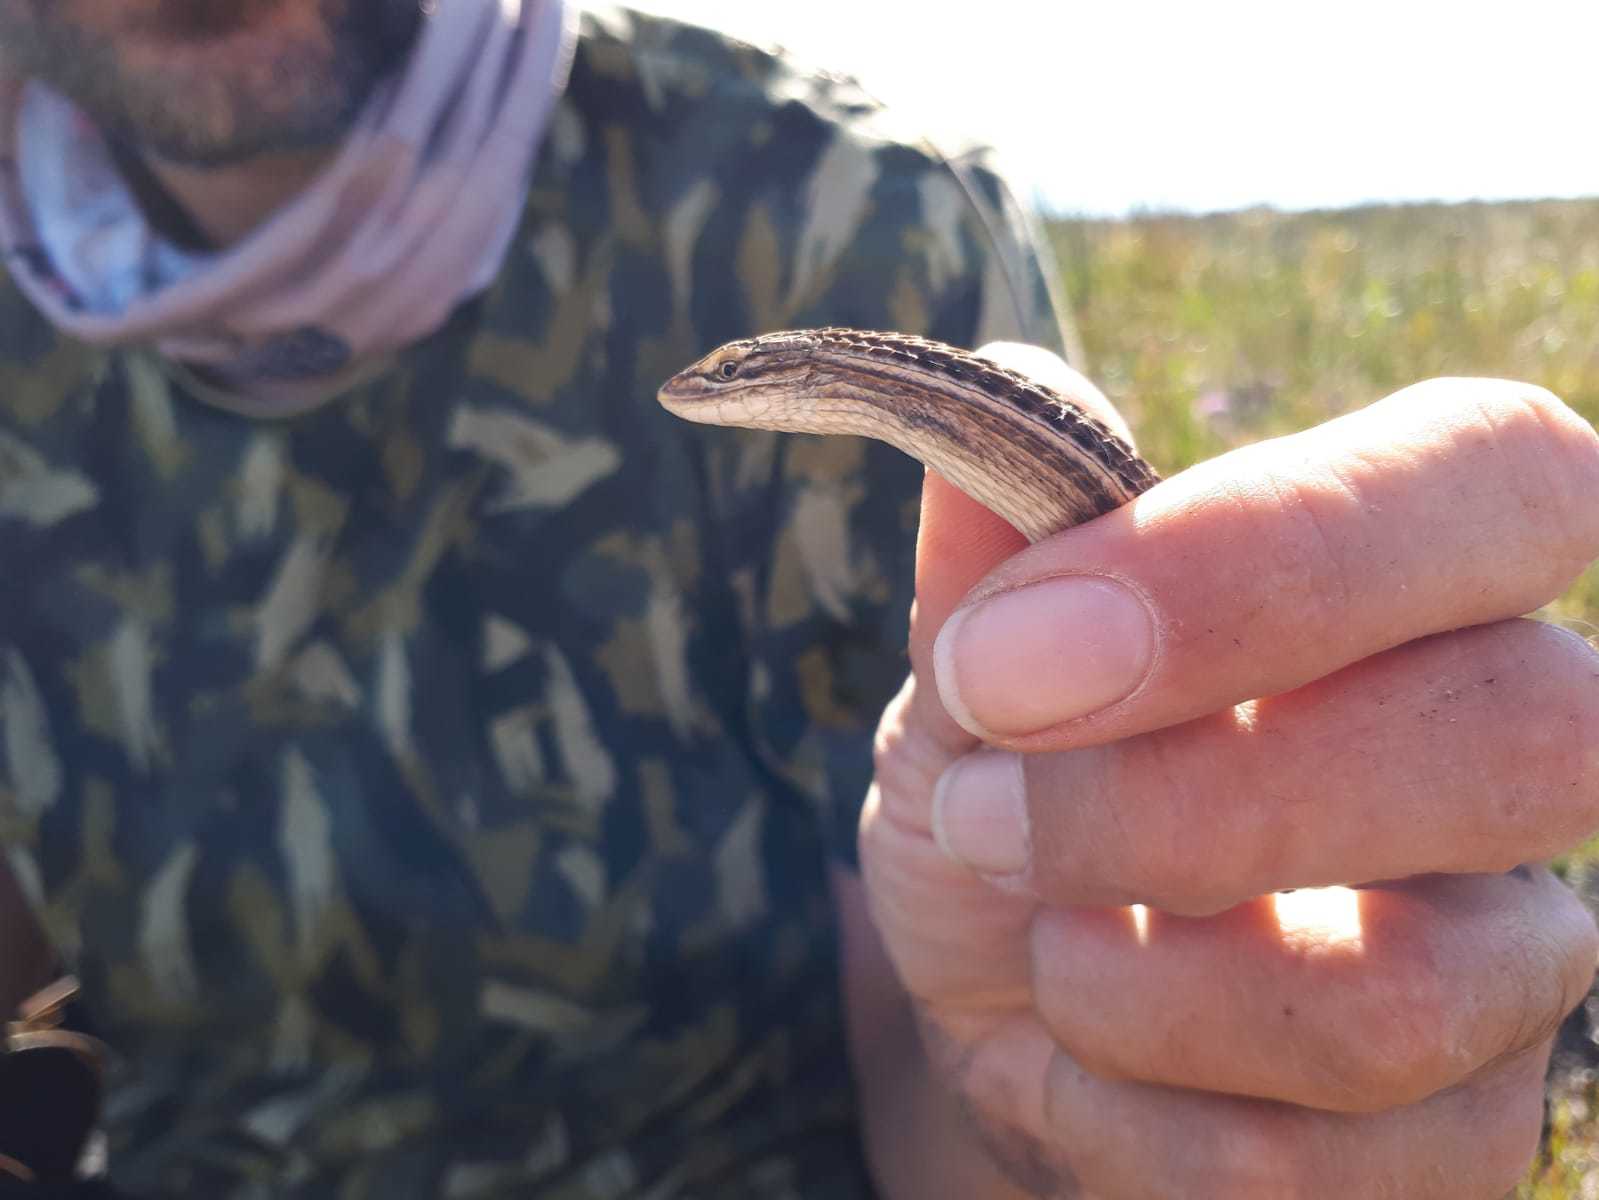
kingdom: Animalia
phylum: Chordata
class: Squamata
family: Cordylidae
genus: Chamaesaura
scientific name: Chamaesaura anguina
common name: Cape snake lizard
